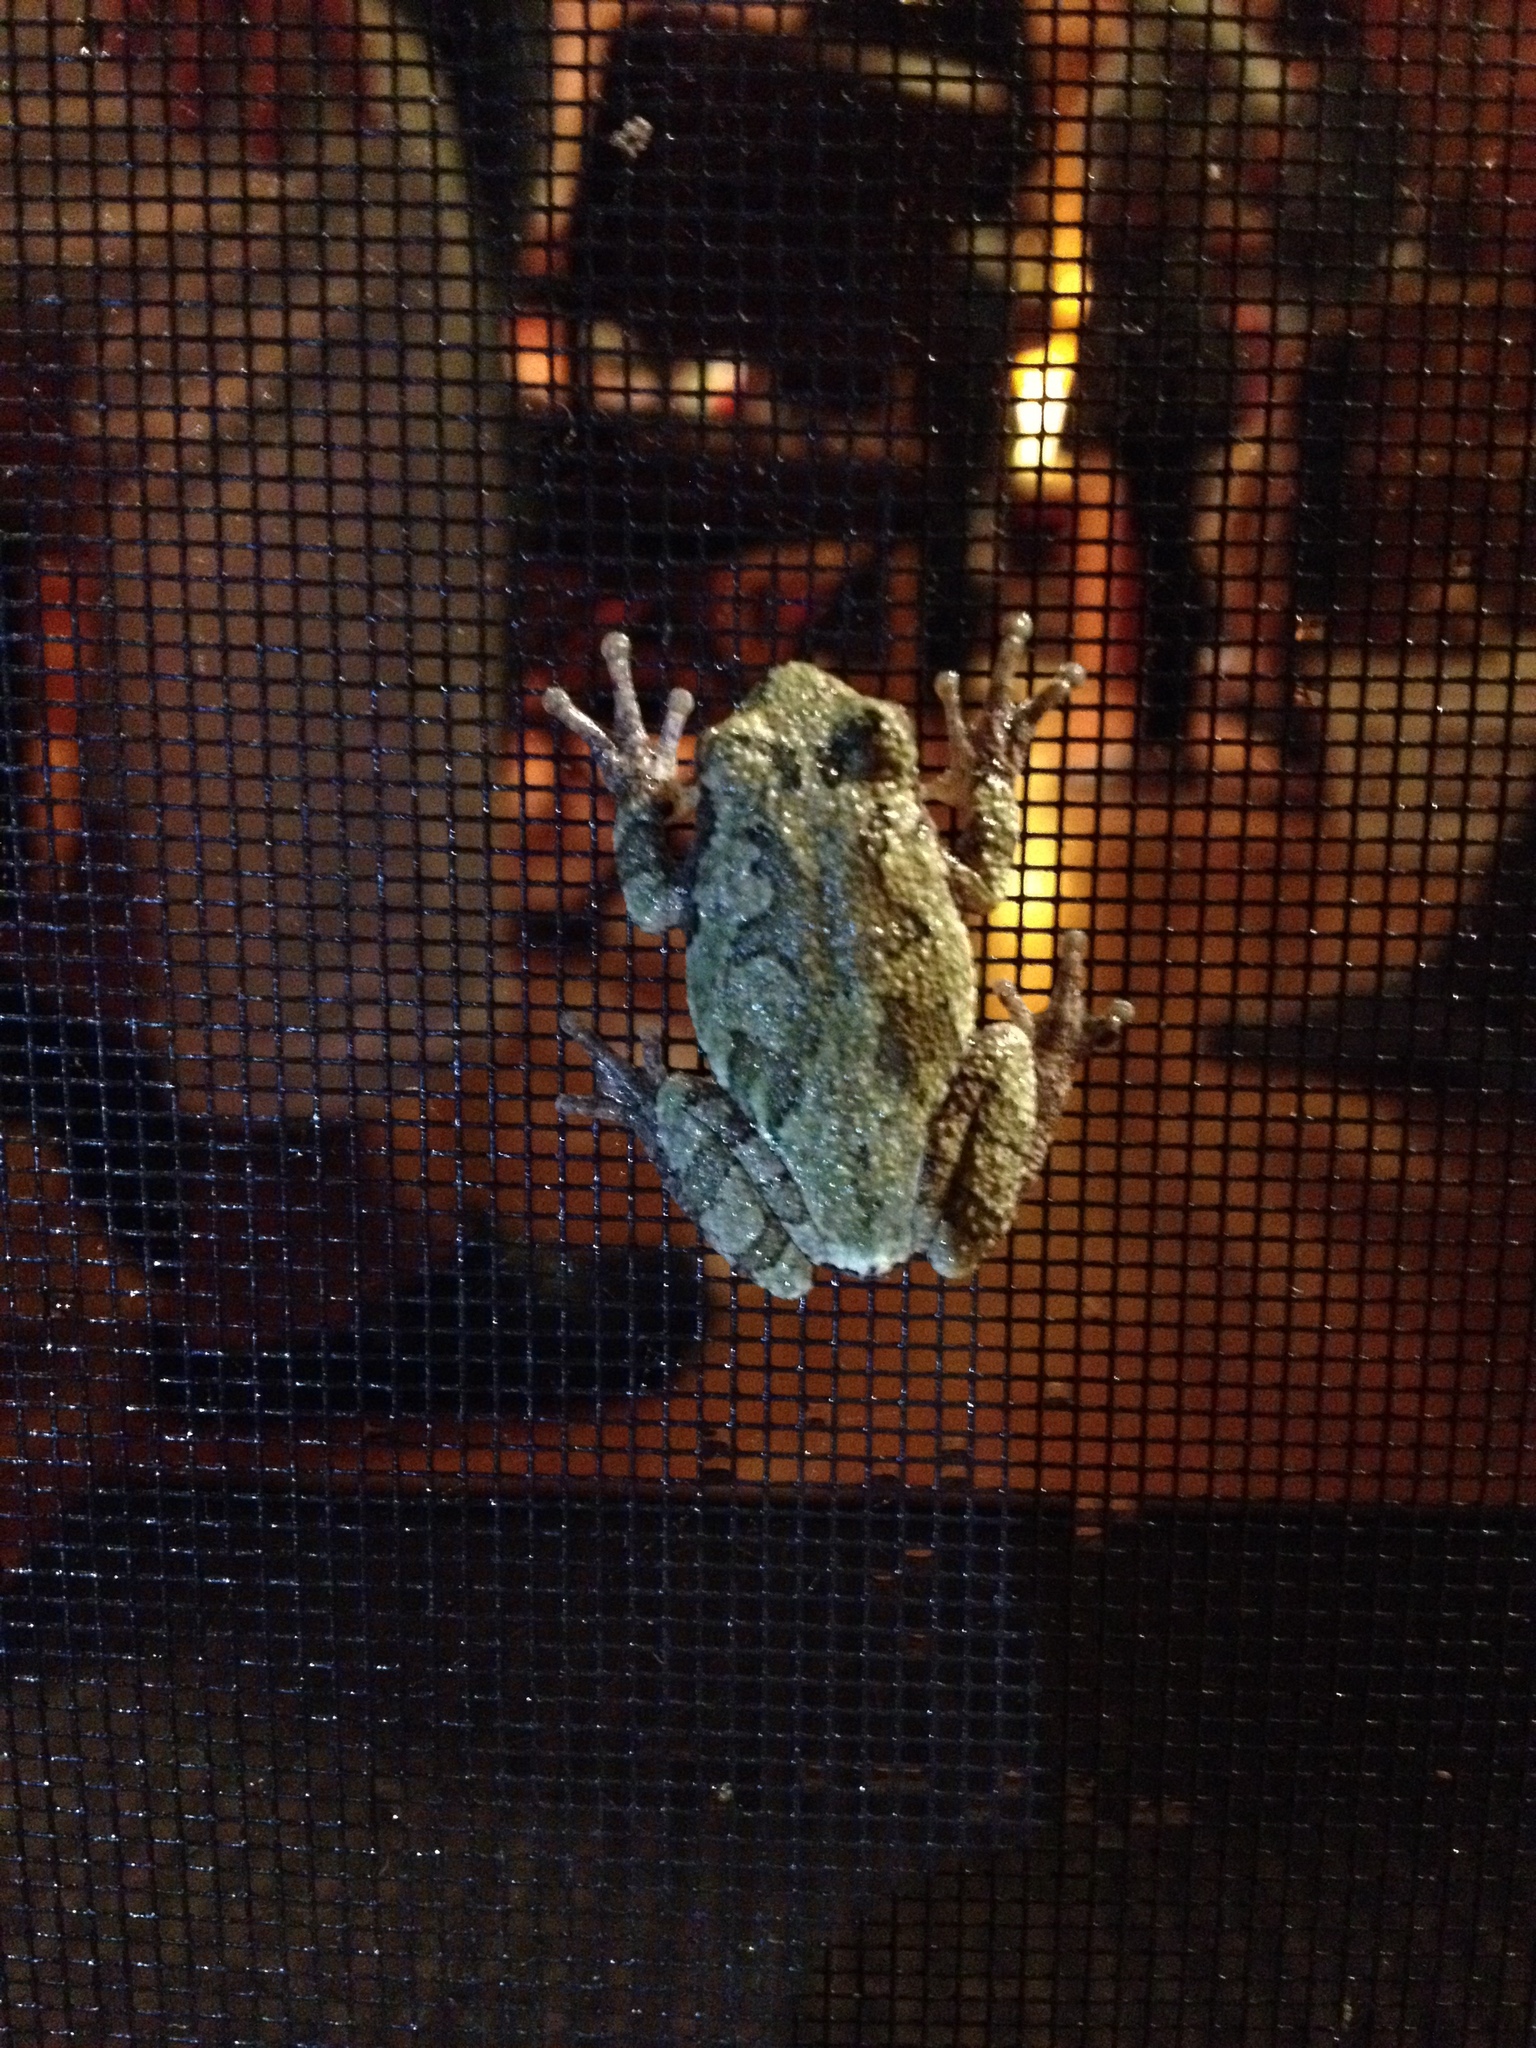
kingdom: Animalia
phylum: Chordata
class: Amphibia
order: Anura
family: Hylidae
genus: Hyla
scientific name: Hyla
